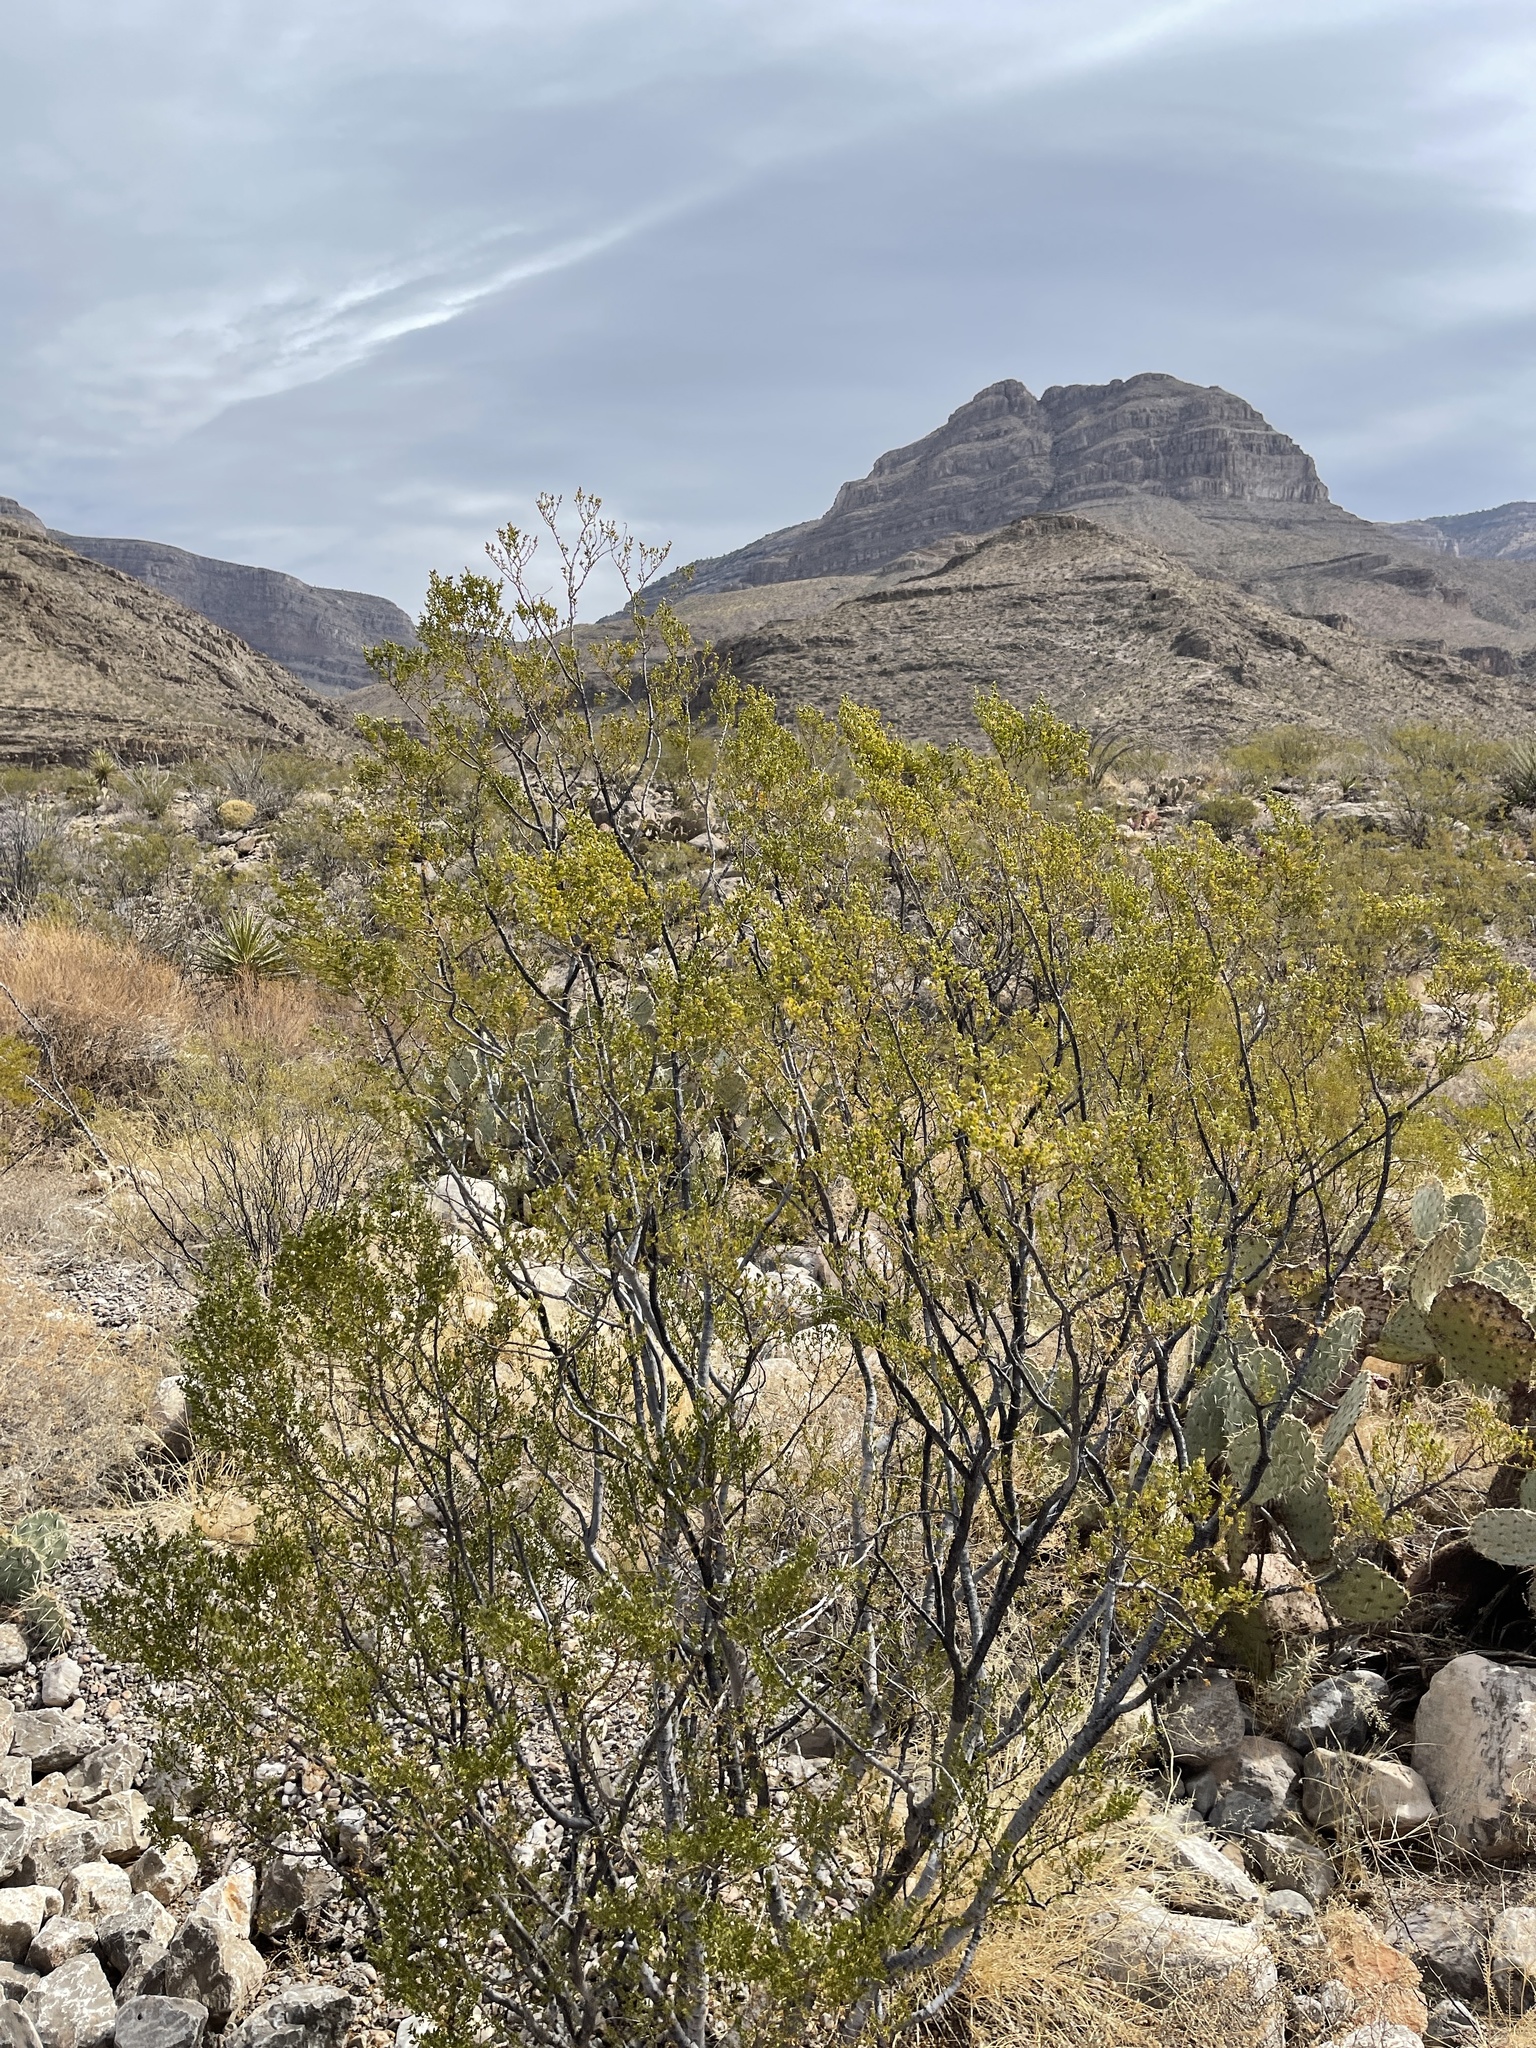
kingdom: Plantae
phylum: Tracheophyta
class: Magnoliopsida
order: Zygophyllales
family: Zygophyllaceae
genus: Larrea
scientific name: Larrea tridentata
